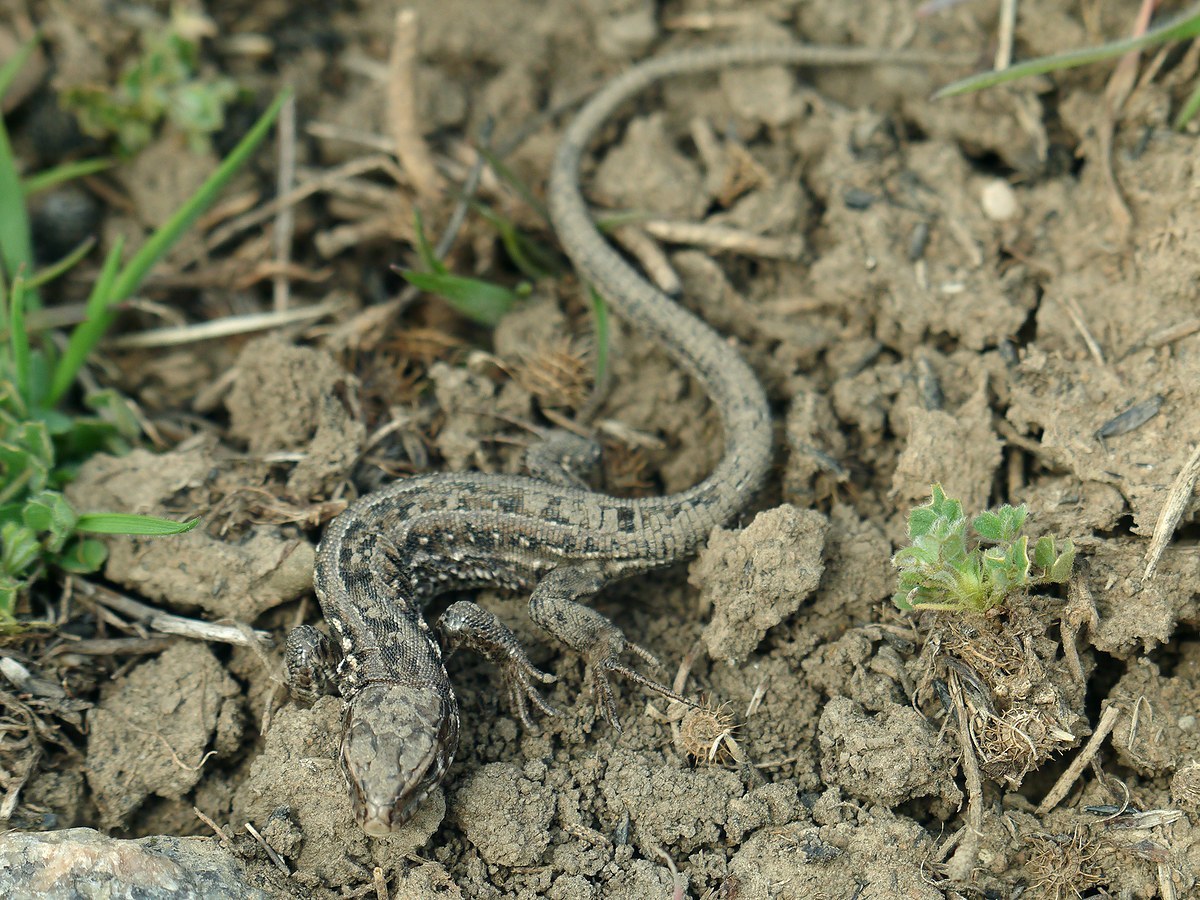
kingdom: Animalia
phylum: Chordata
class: Squamata
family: Lacertidae
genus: Lacerta
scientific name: Lacerta agilis
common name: Sand lizard
